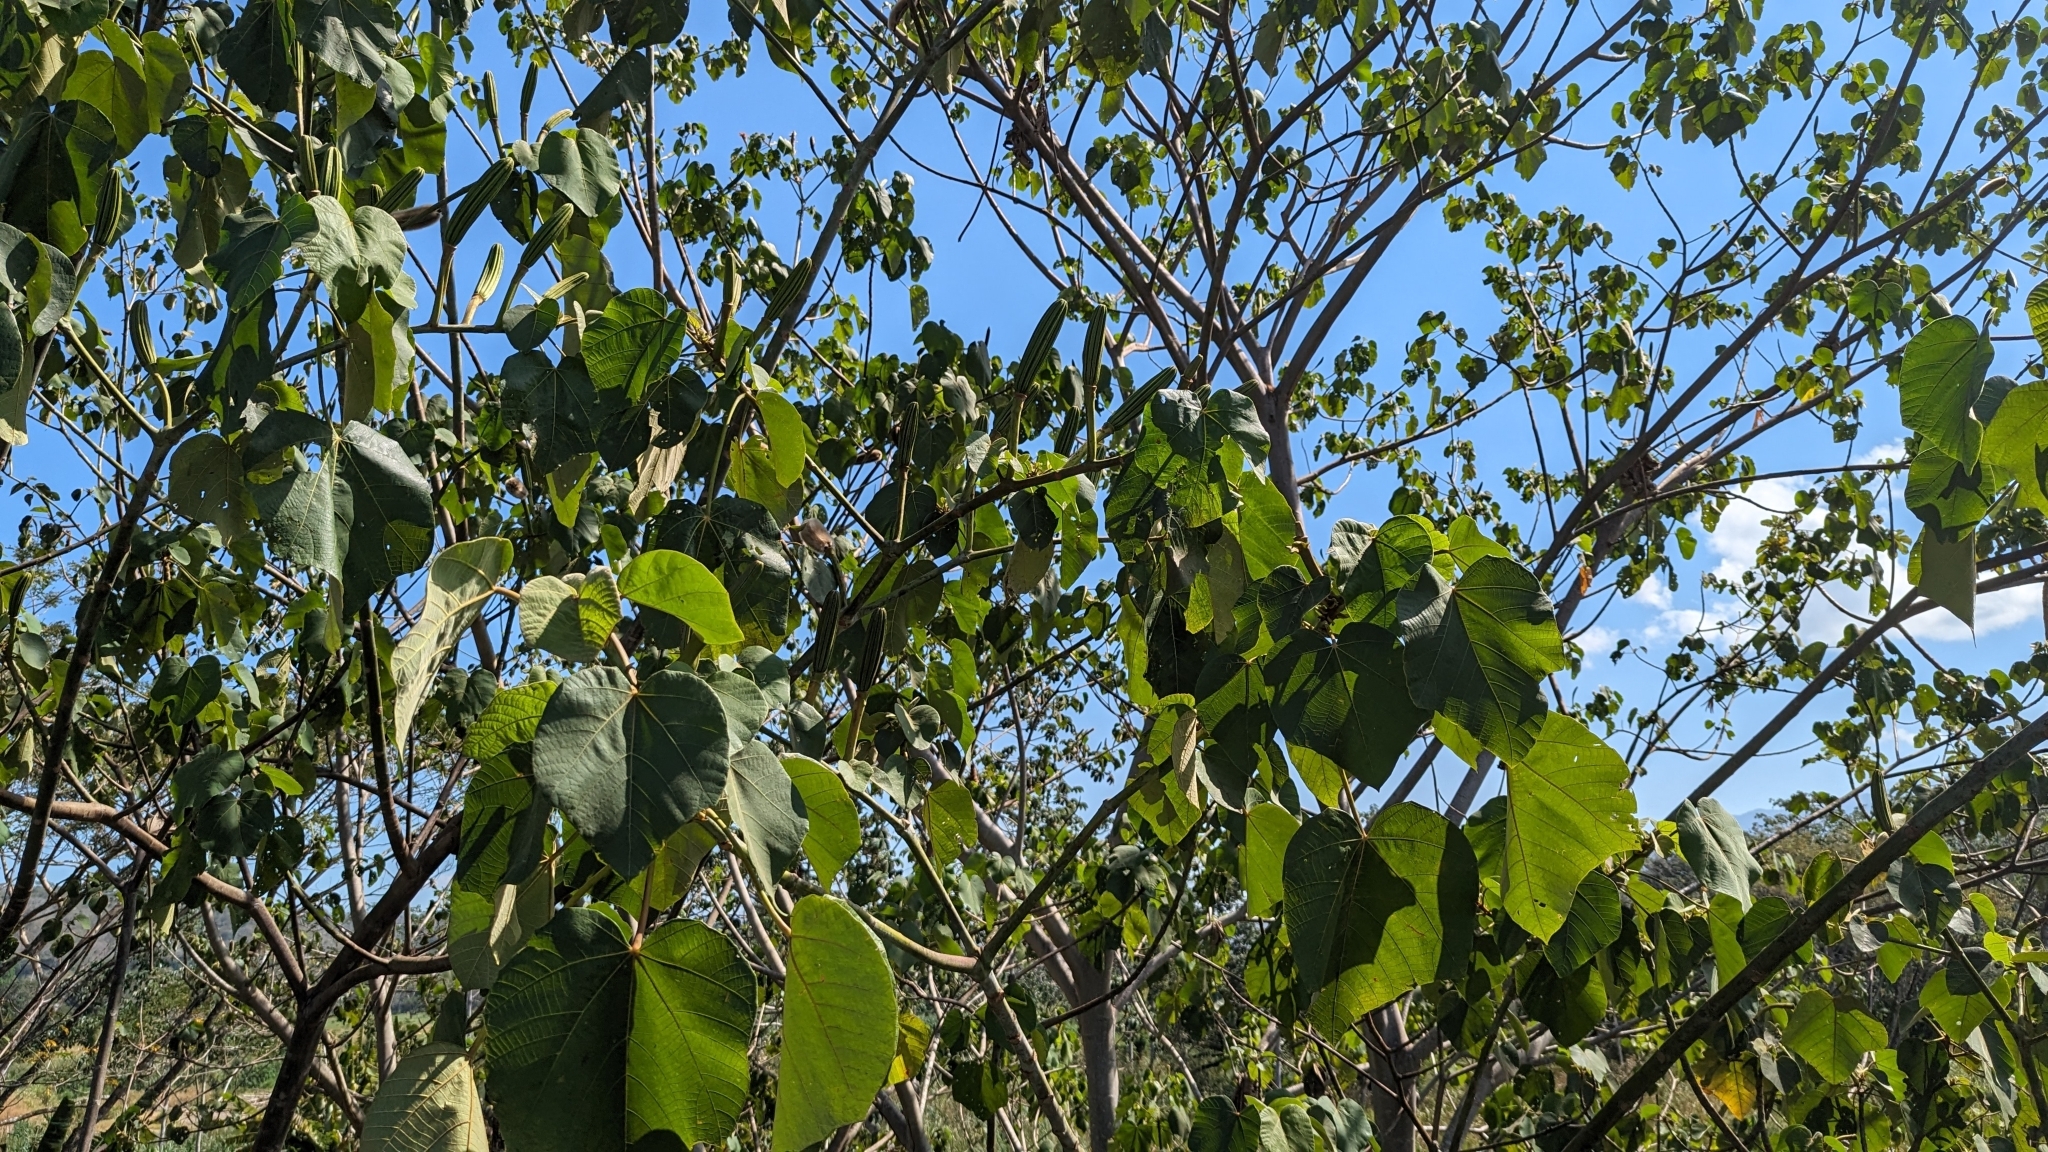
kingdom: Plantae
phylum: Tracheophyta
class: Magnoliopsida
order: Malvales
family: Malvaceae
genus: Ochroma
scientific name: Ochroma pyramidale
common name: Balsa
